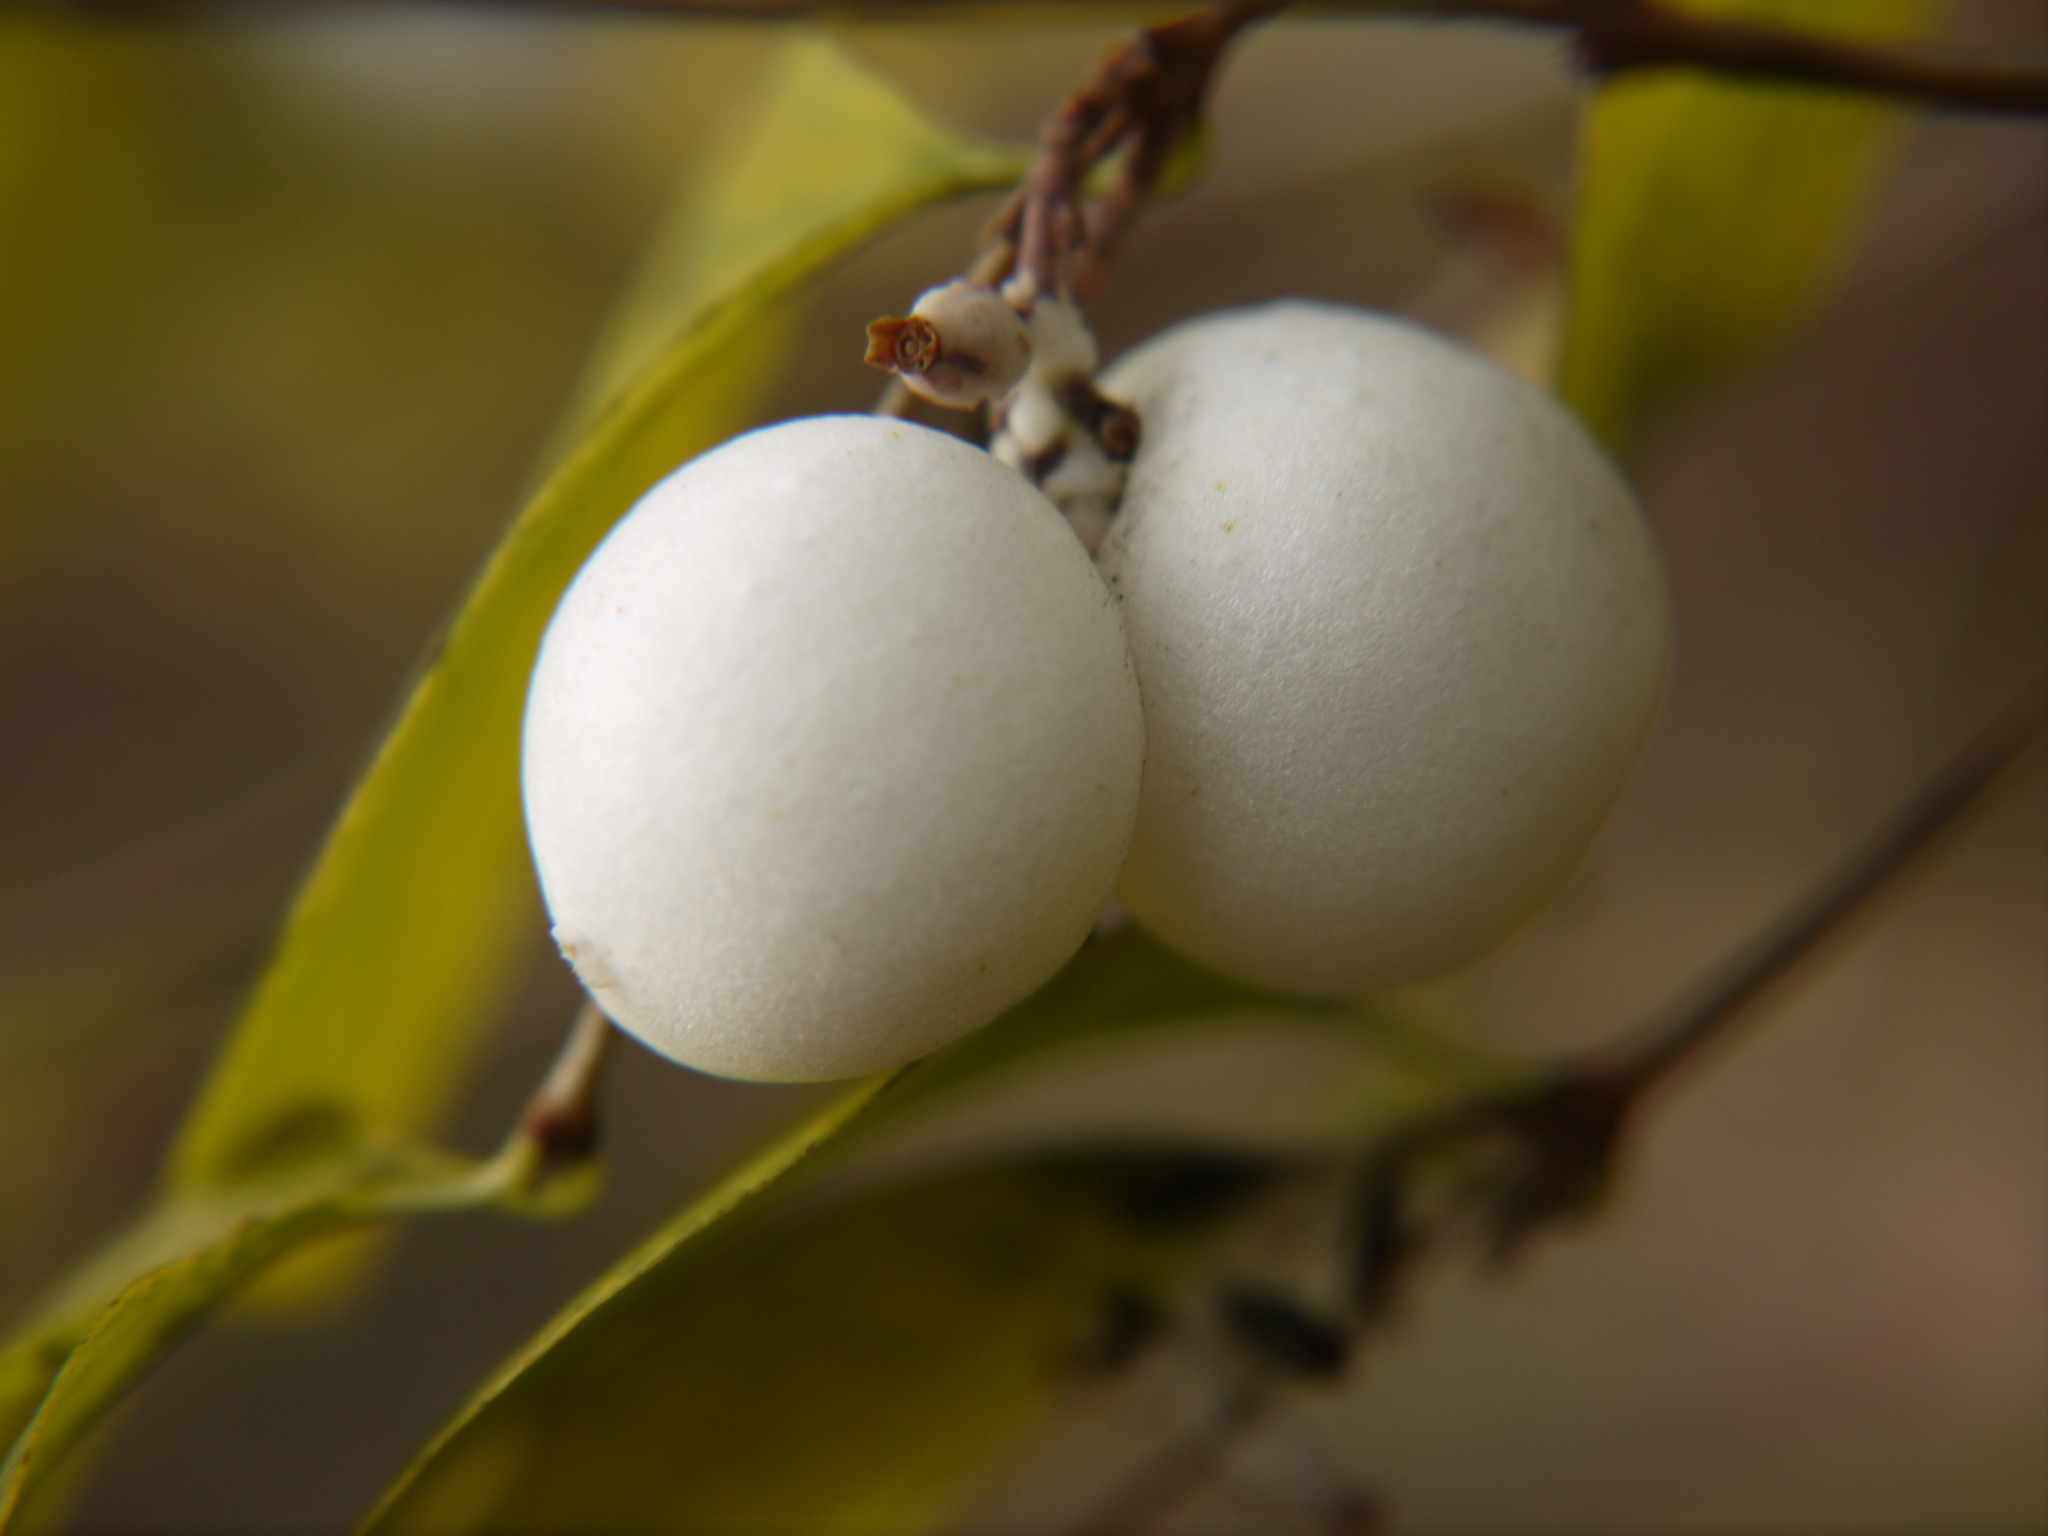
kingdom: Plantae
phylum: Tracheophyta
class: Magnoliopsida
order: Dipsacales
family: Caprifoliaceae
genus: Symphoricarpos
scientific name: Symphoricarpos albus
